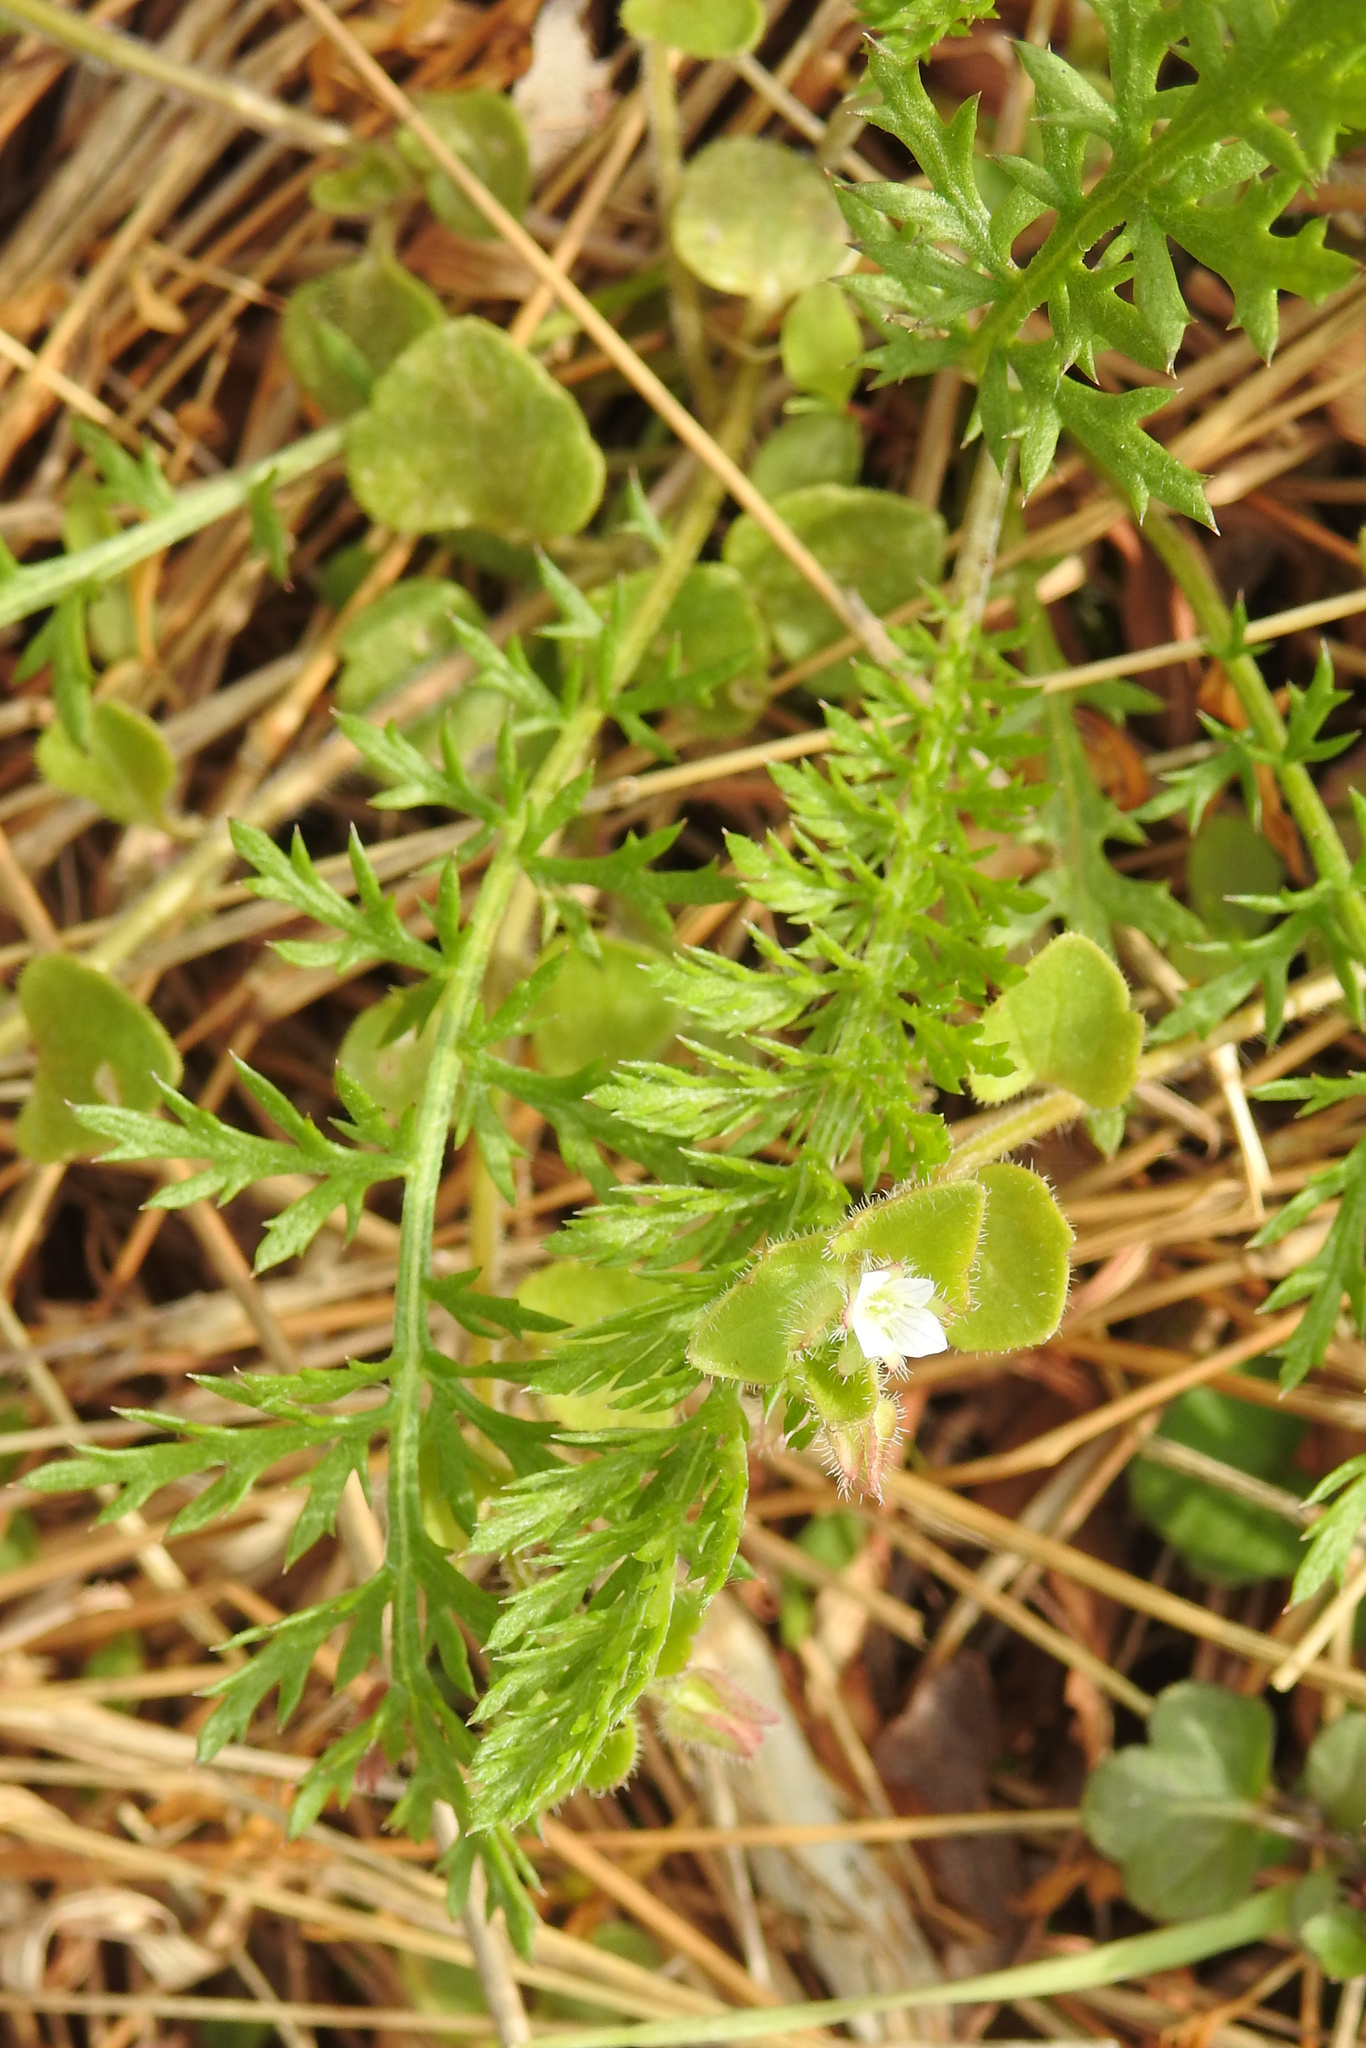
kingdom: Plantae
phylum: Tracheophyta
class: Magnoliopsida
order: Asterales
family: Asteraceae
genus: Achillea
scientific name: Achillea millefolium
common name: Yarrow
